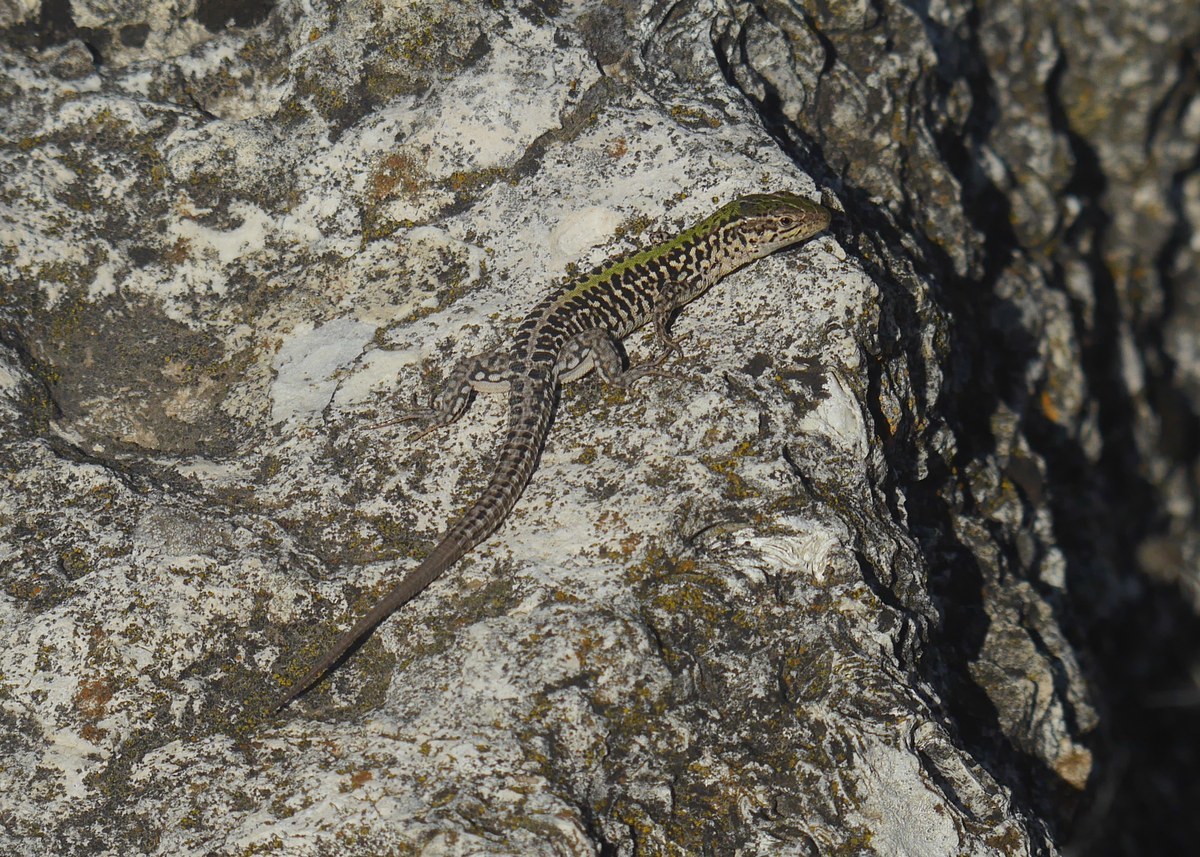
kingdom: Animalia
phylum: Chordata
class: Squamata
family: Lacertidae
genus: Podarcis
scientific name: Podarcis tauricus
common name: Balkan wall lizard
